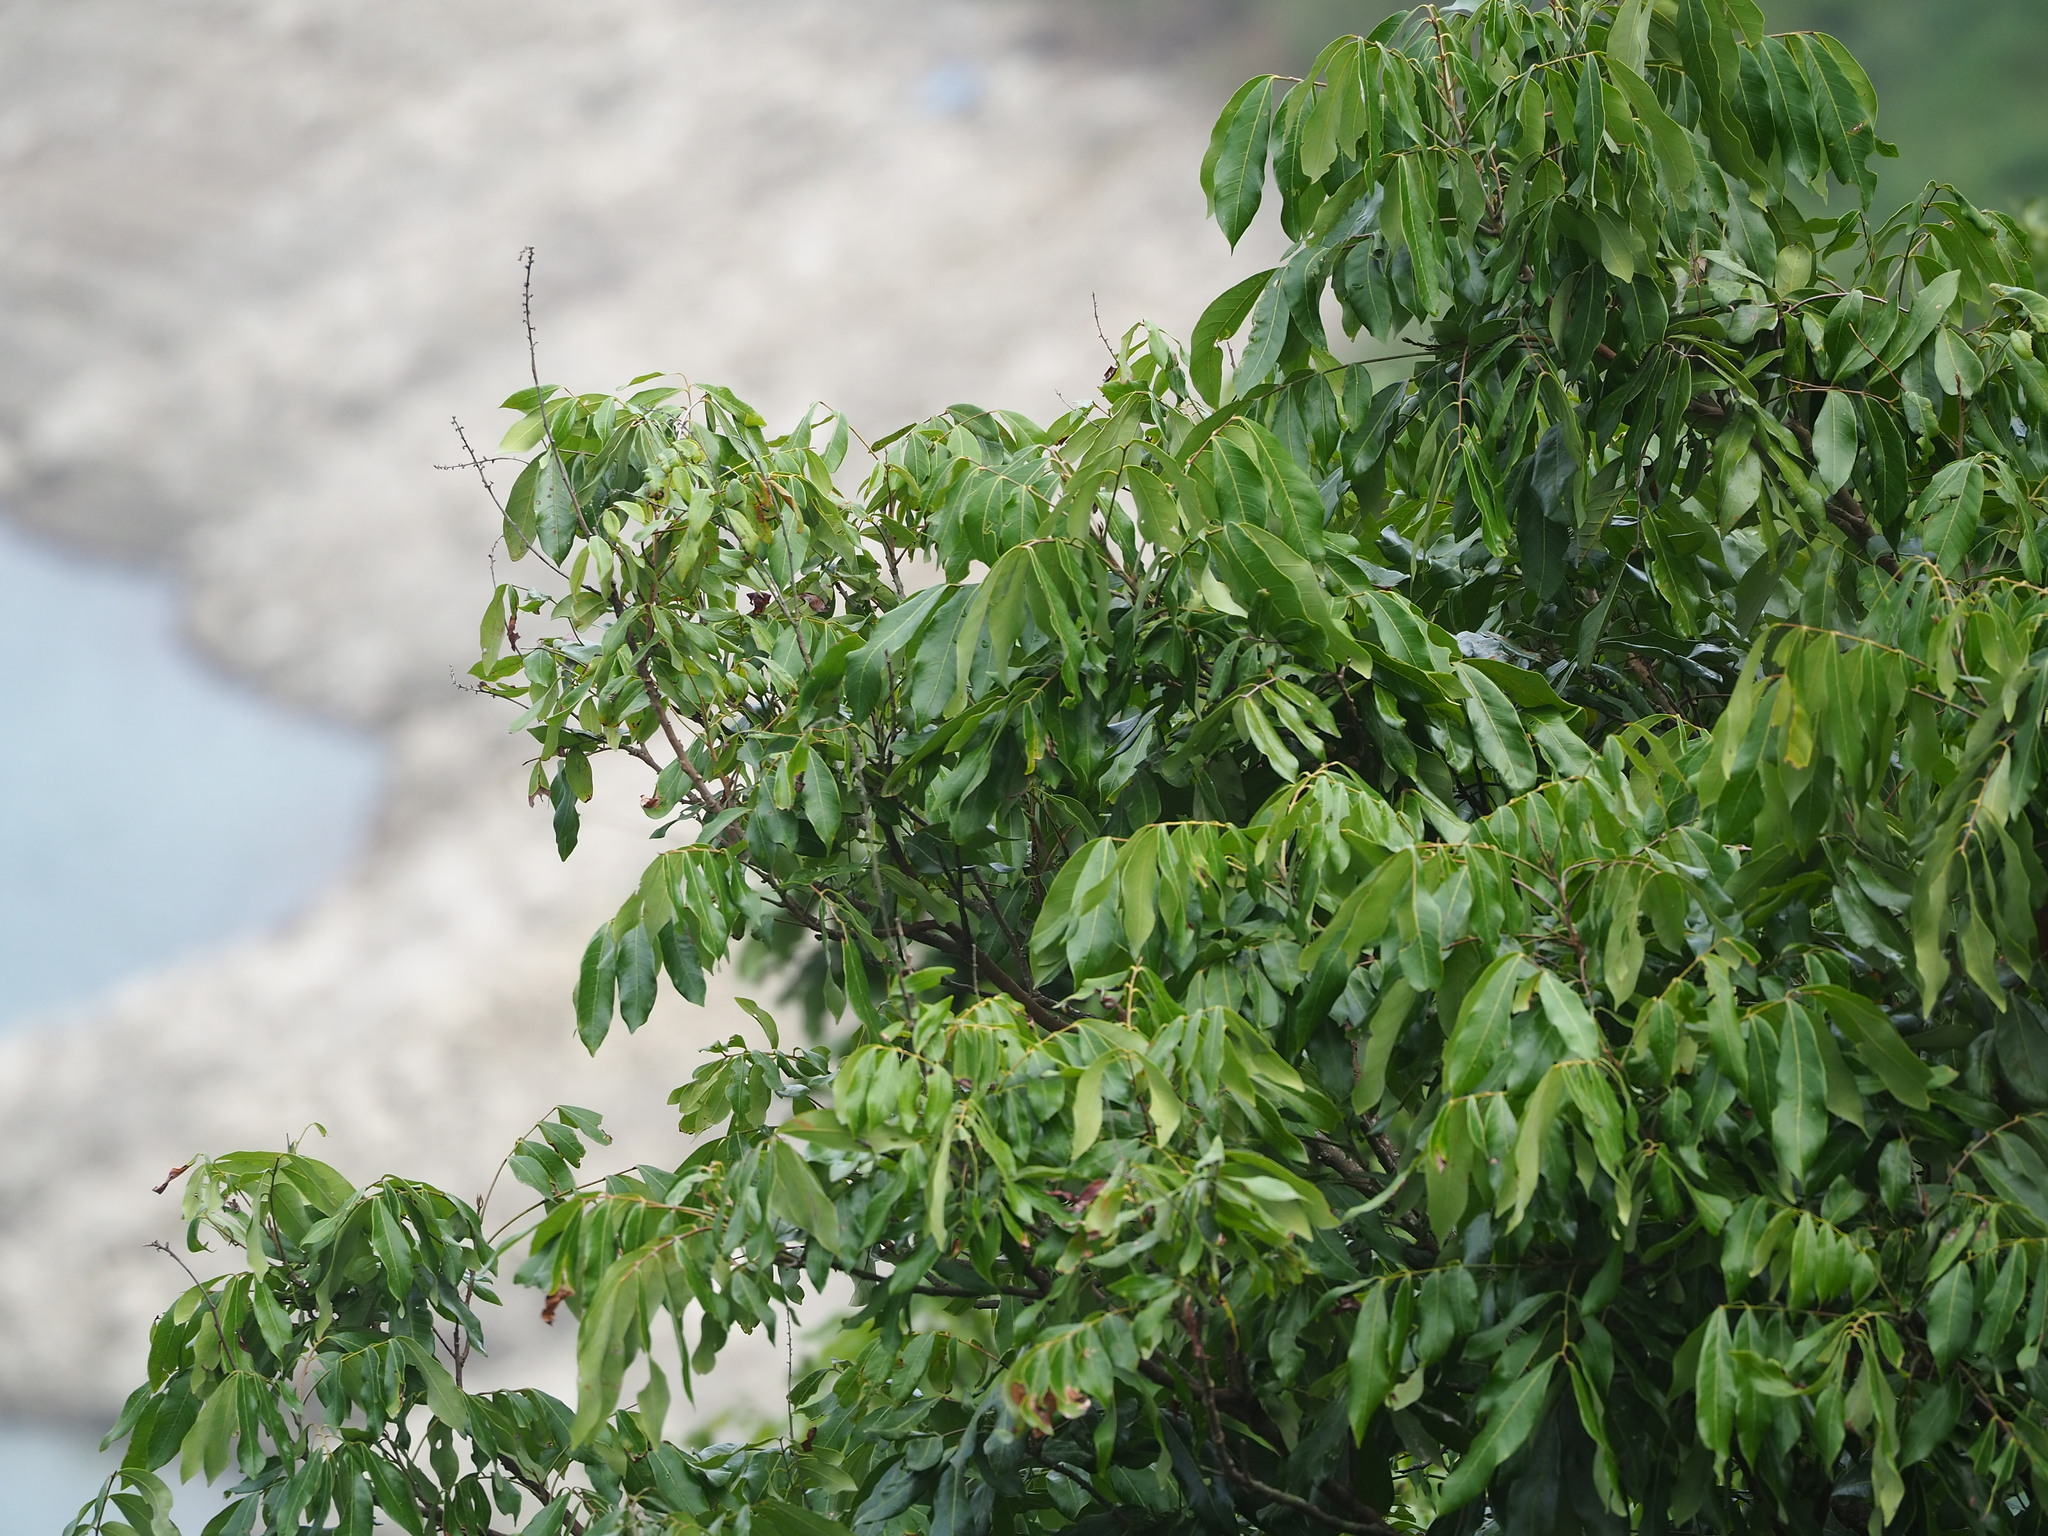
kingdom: Plantae
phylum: Tracheophyta
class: Magnoliopsida
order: Sapindales
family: Sapindaceae
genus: Dimocarpus
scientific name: Dimocarpus longan
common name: Longan
